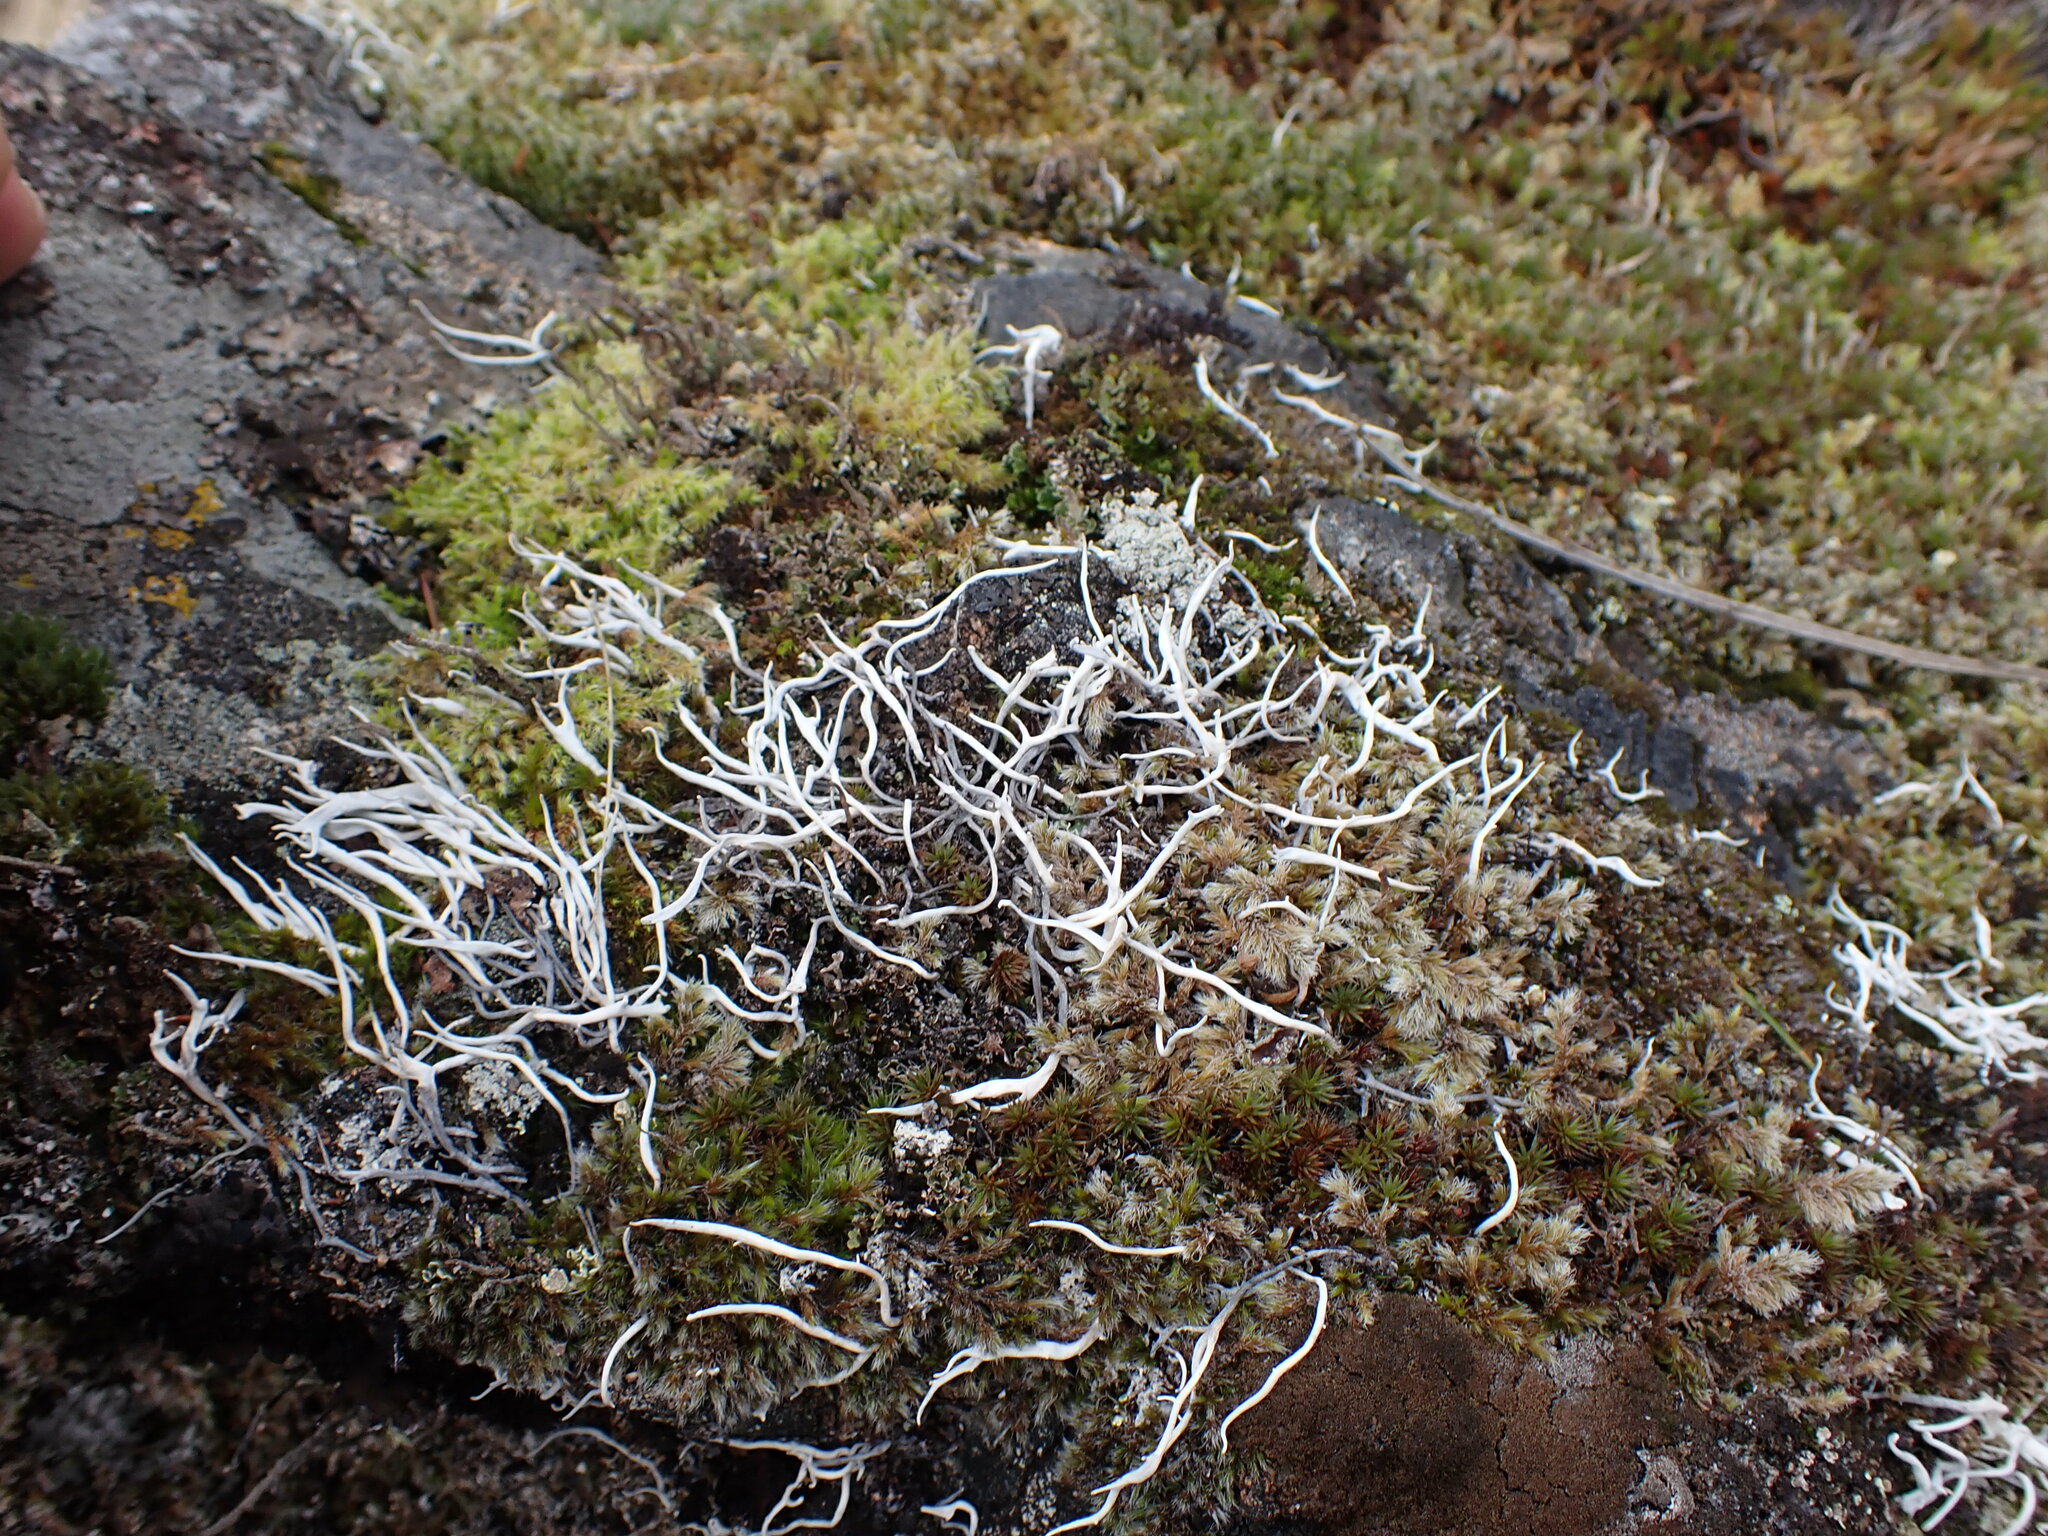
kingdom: Fungi
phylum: Ascomycota
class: Lecanoromycetes
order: Pertusariales
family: Icmadophilaceae
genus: Thamnolia
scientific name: Thamnolia vermicularis
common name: Whiteworm lichen
